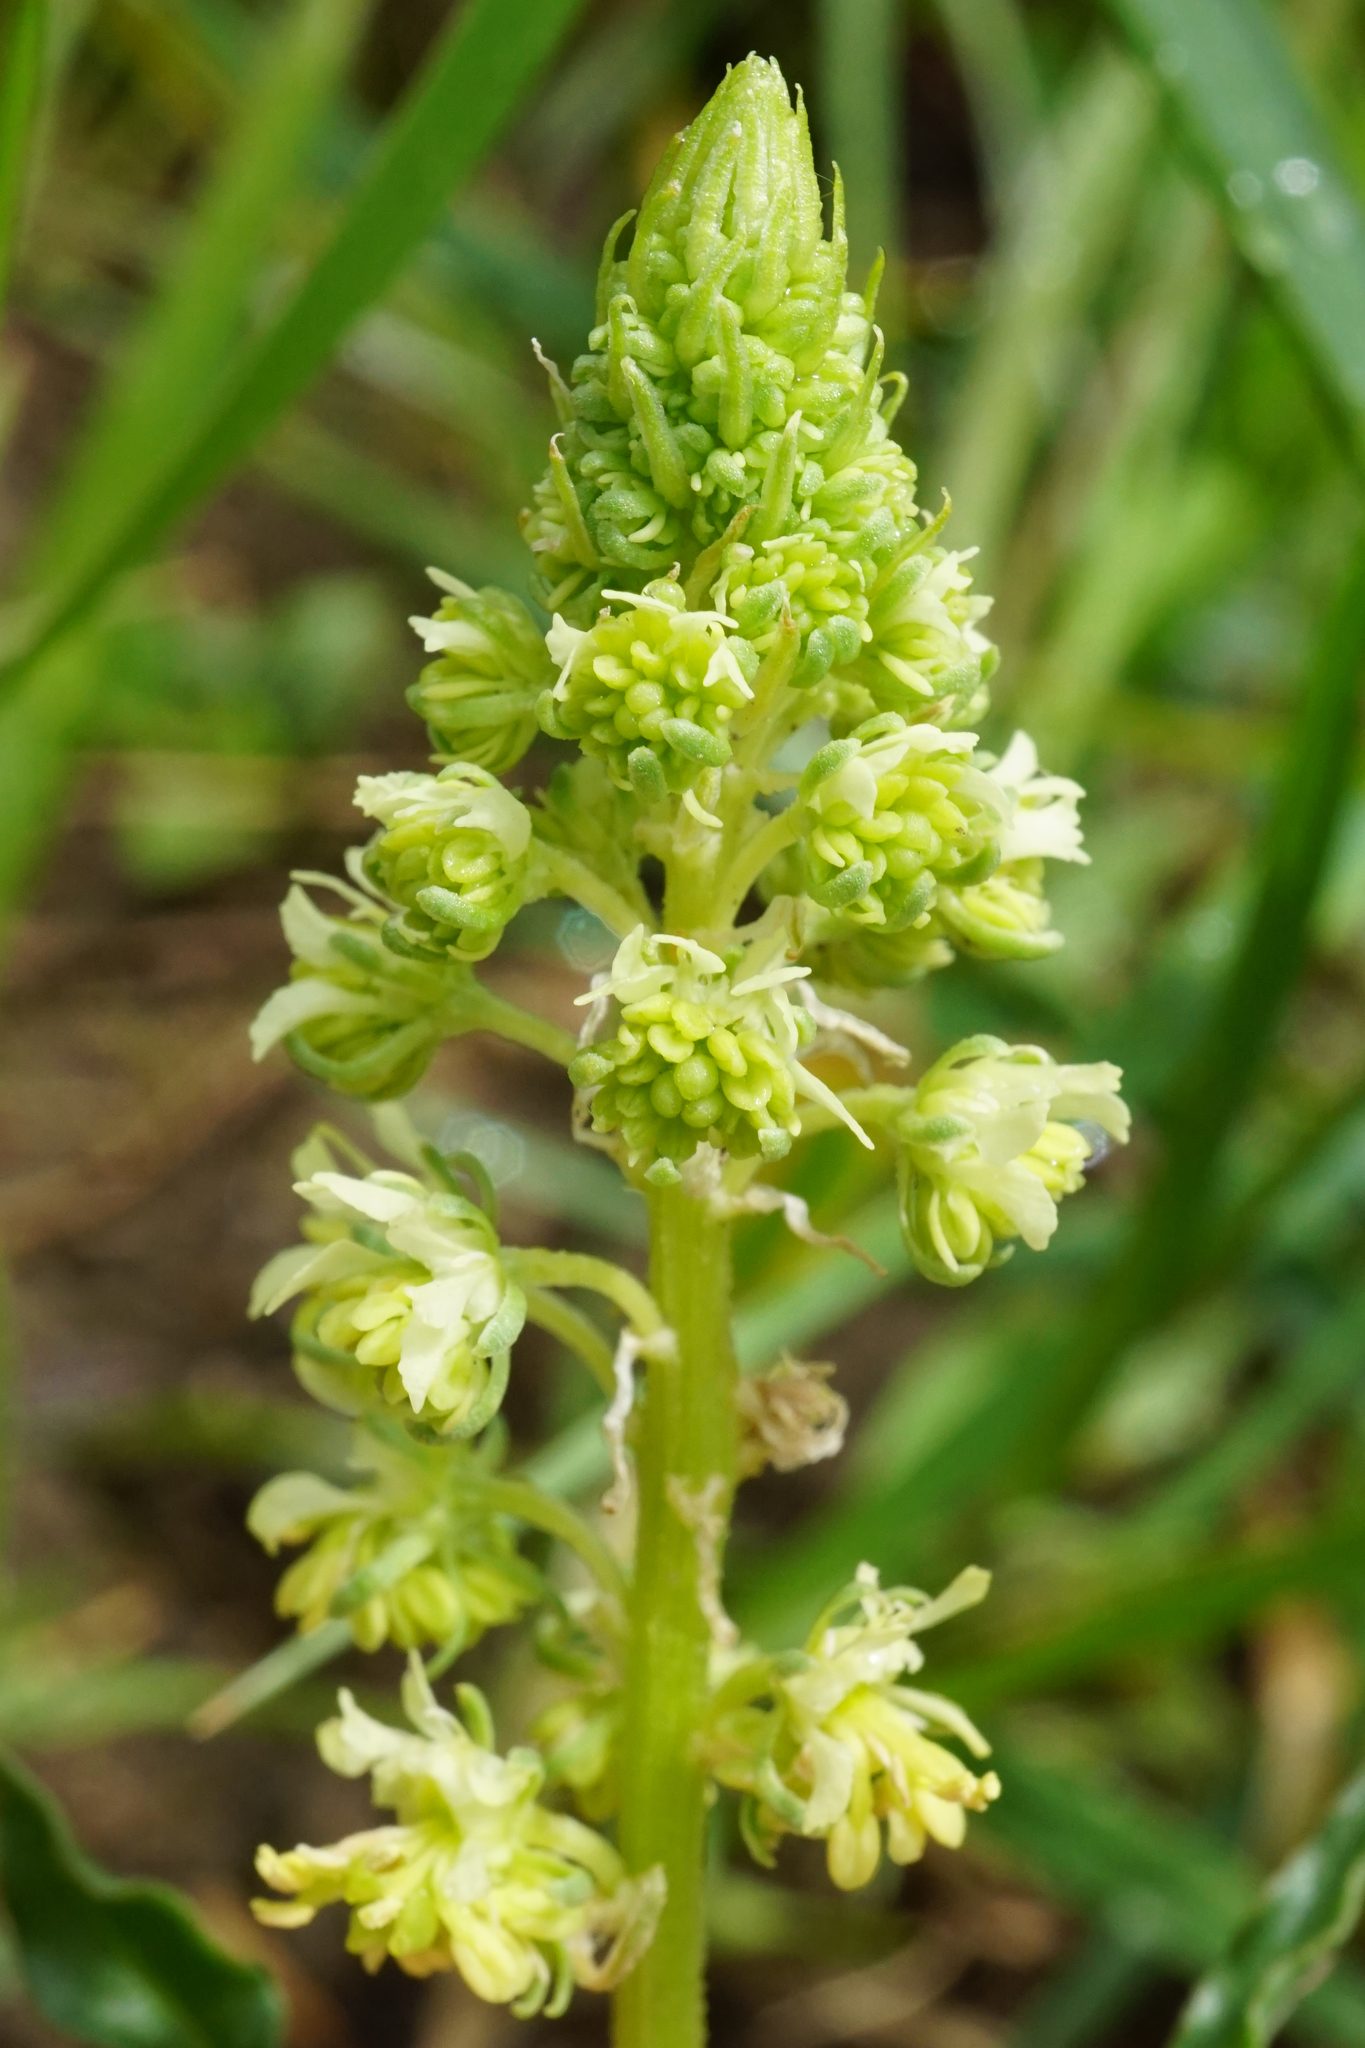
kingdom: Plantae
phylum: Tracheophyta
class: Magnoliopsida
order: Brassicales
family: Resedaceae
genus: Reseda
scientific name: Reseda lutea
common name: Wild mignonette
